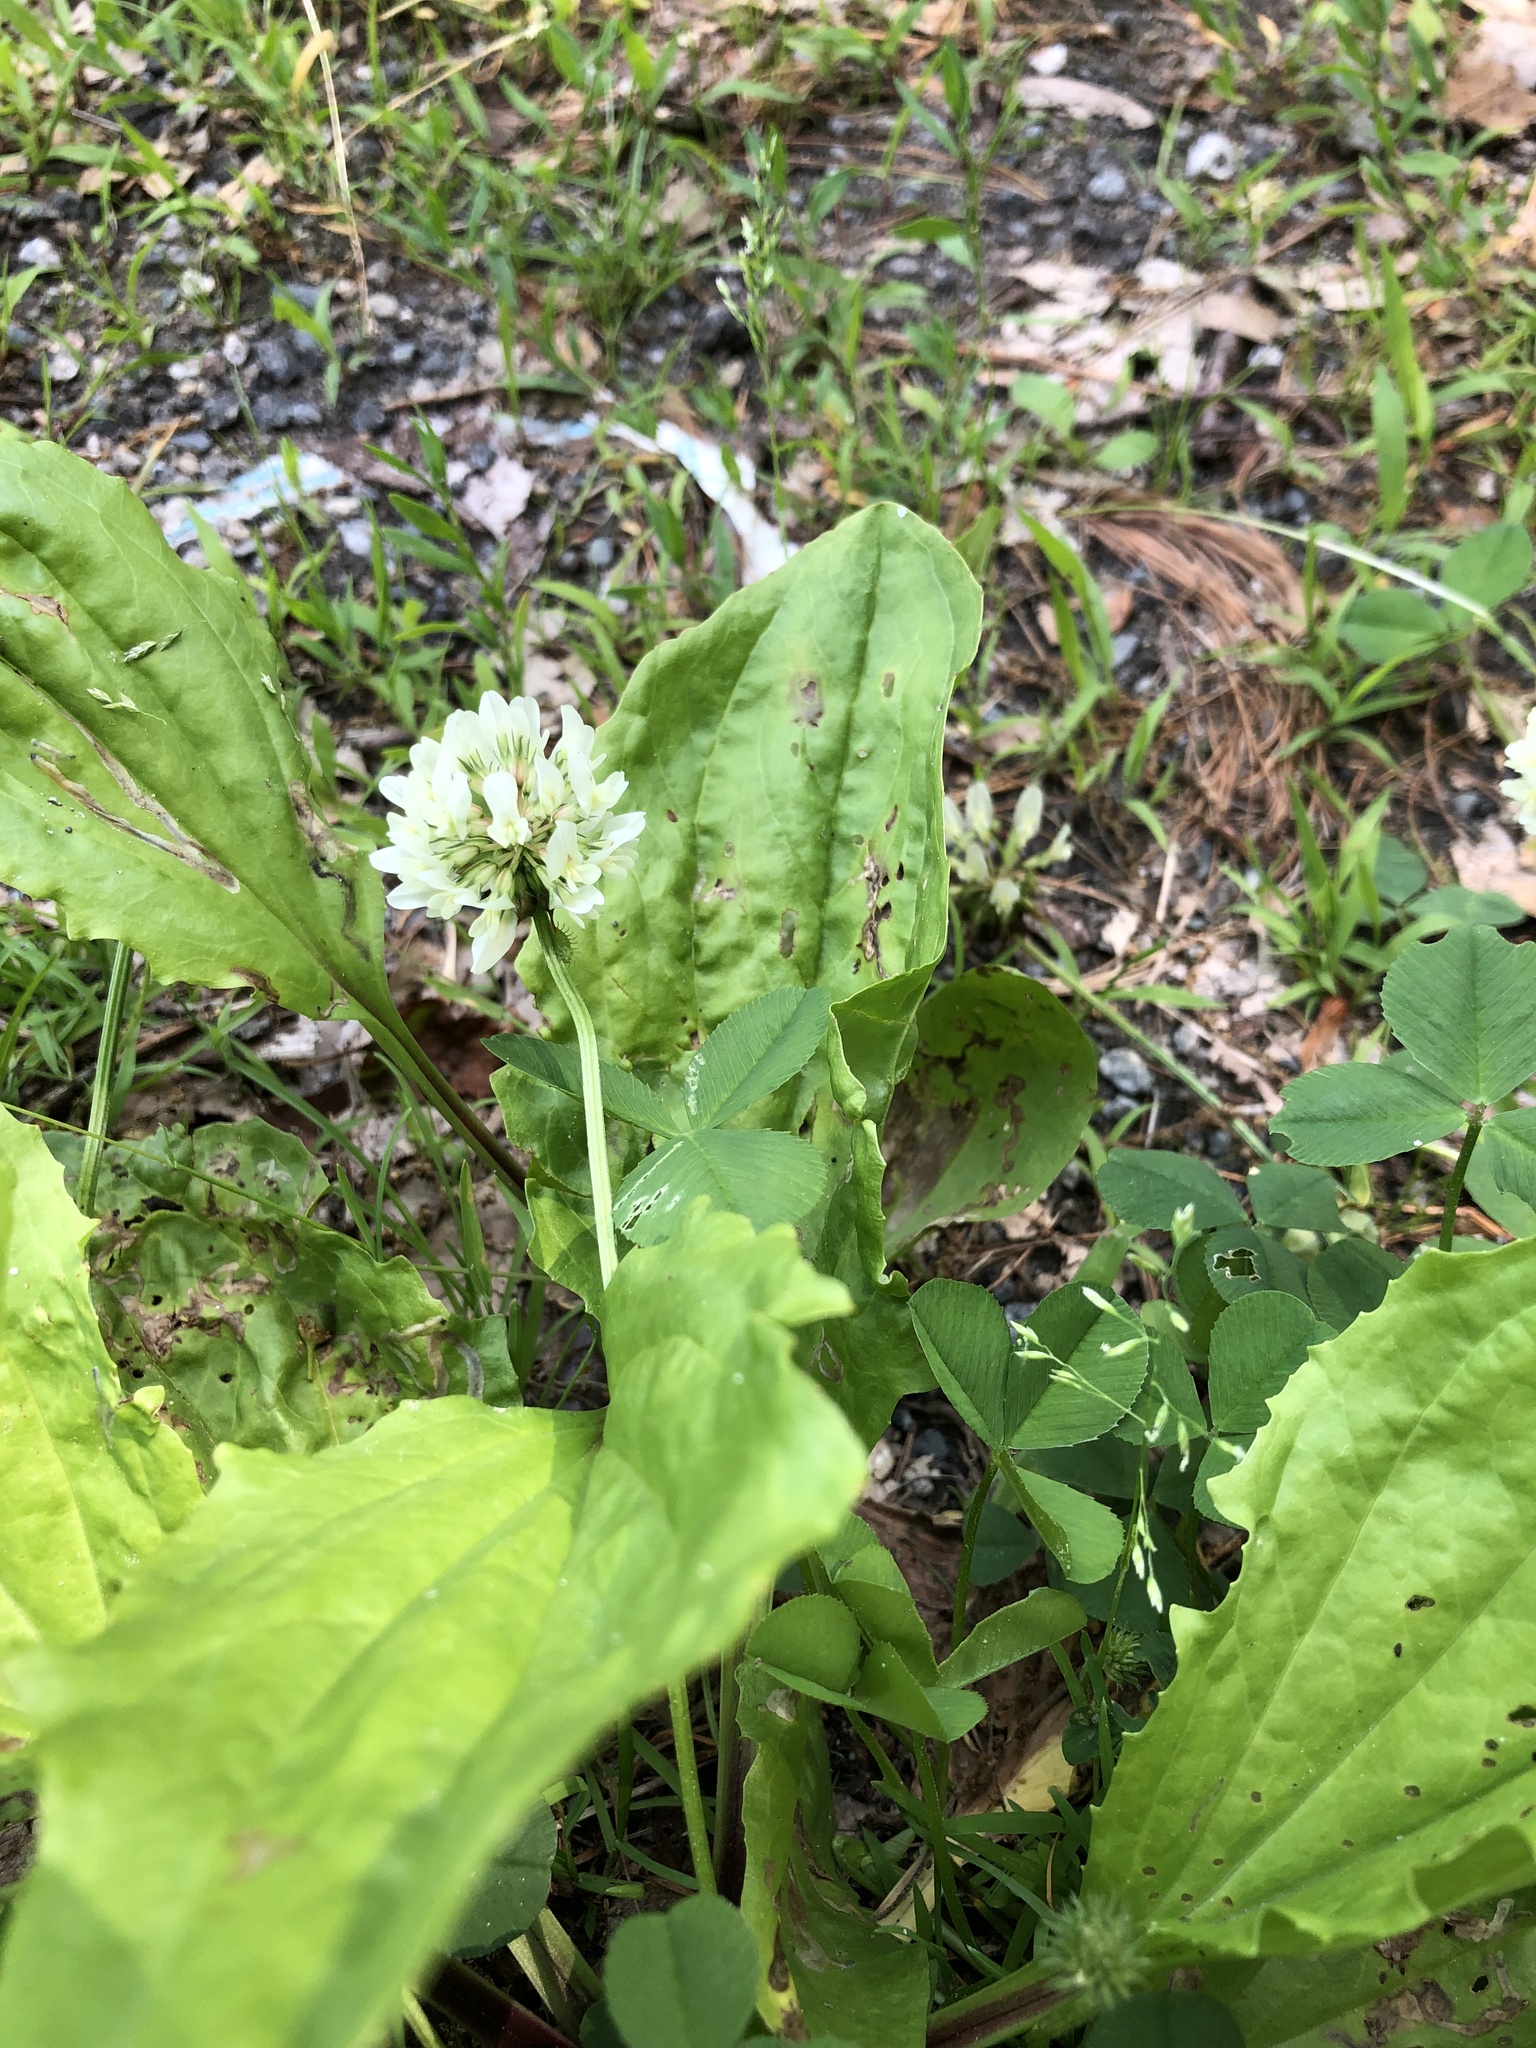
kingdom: Plantae
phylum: Tracheophyta
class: Magnoliopsida
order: Fabales
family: Fabaceae
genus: Trifolium
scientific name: Trifolium repens
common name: White clover
